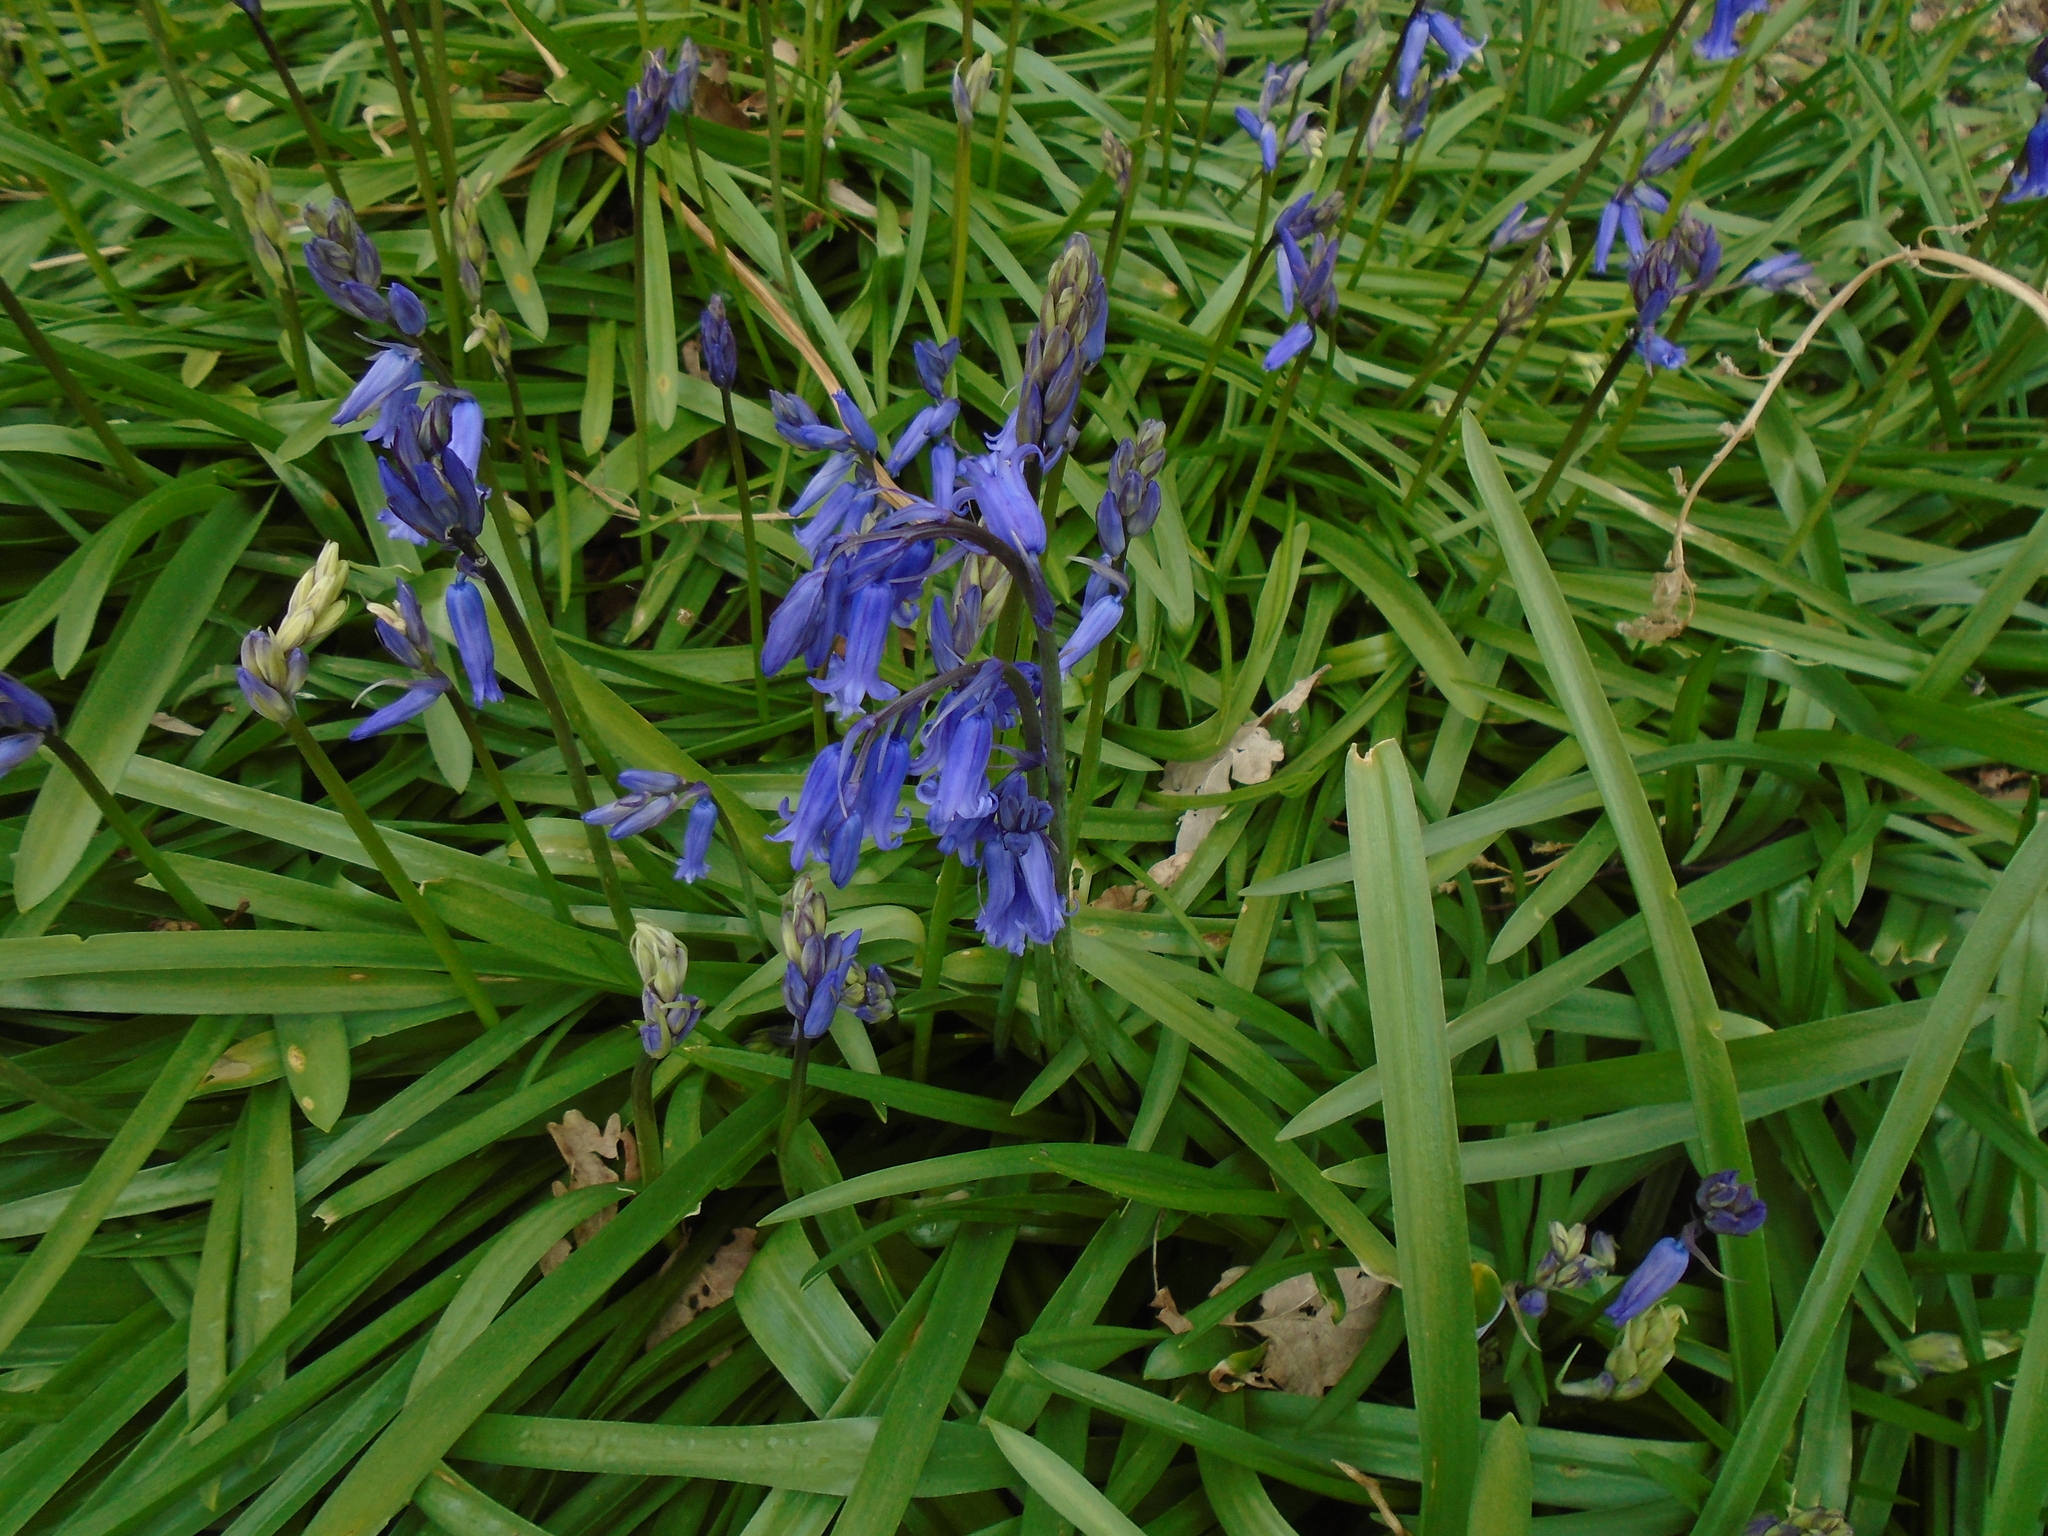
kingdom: Plantae
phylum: Tracheophyta
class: Liliopsida
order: Asparagales
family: Asparagaceae
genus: Hyacinthoides
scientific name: Hyacinthoides non-scripta
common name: Bluebell
